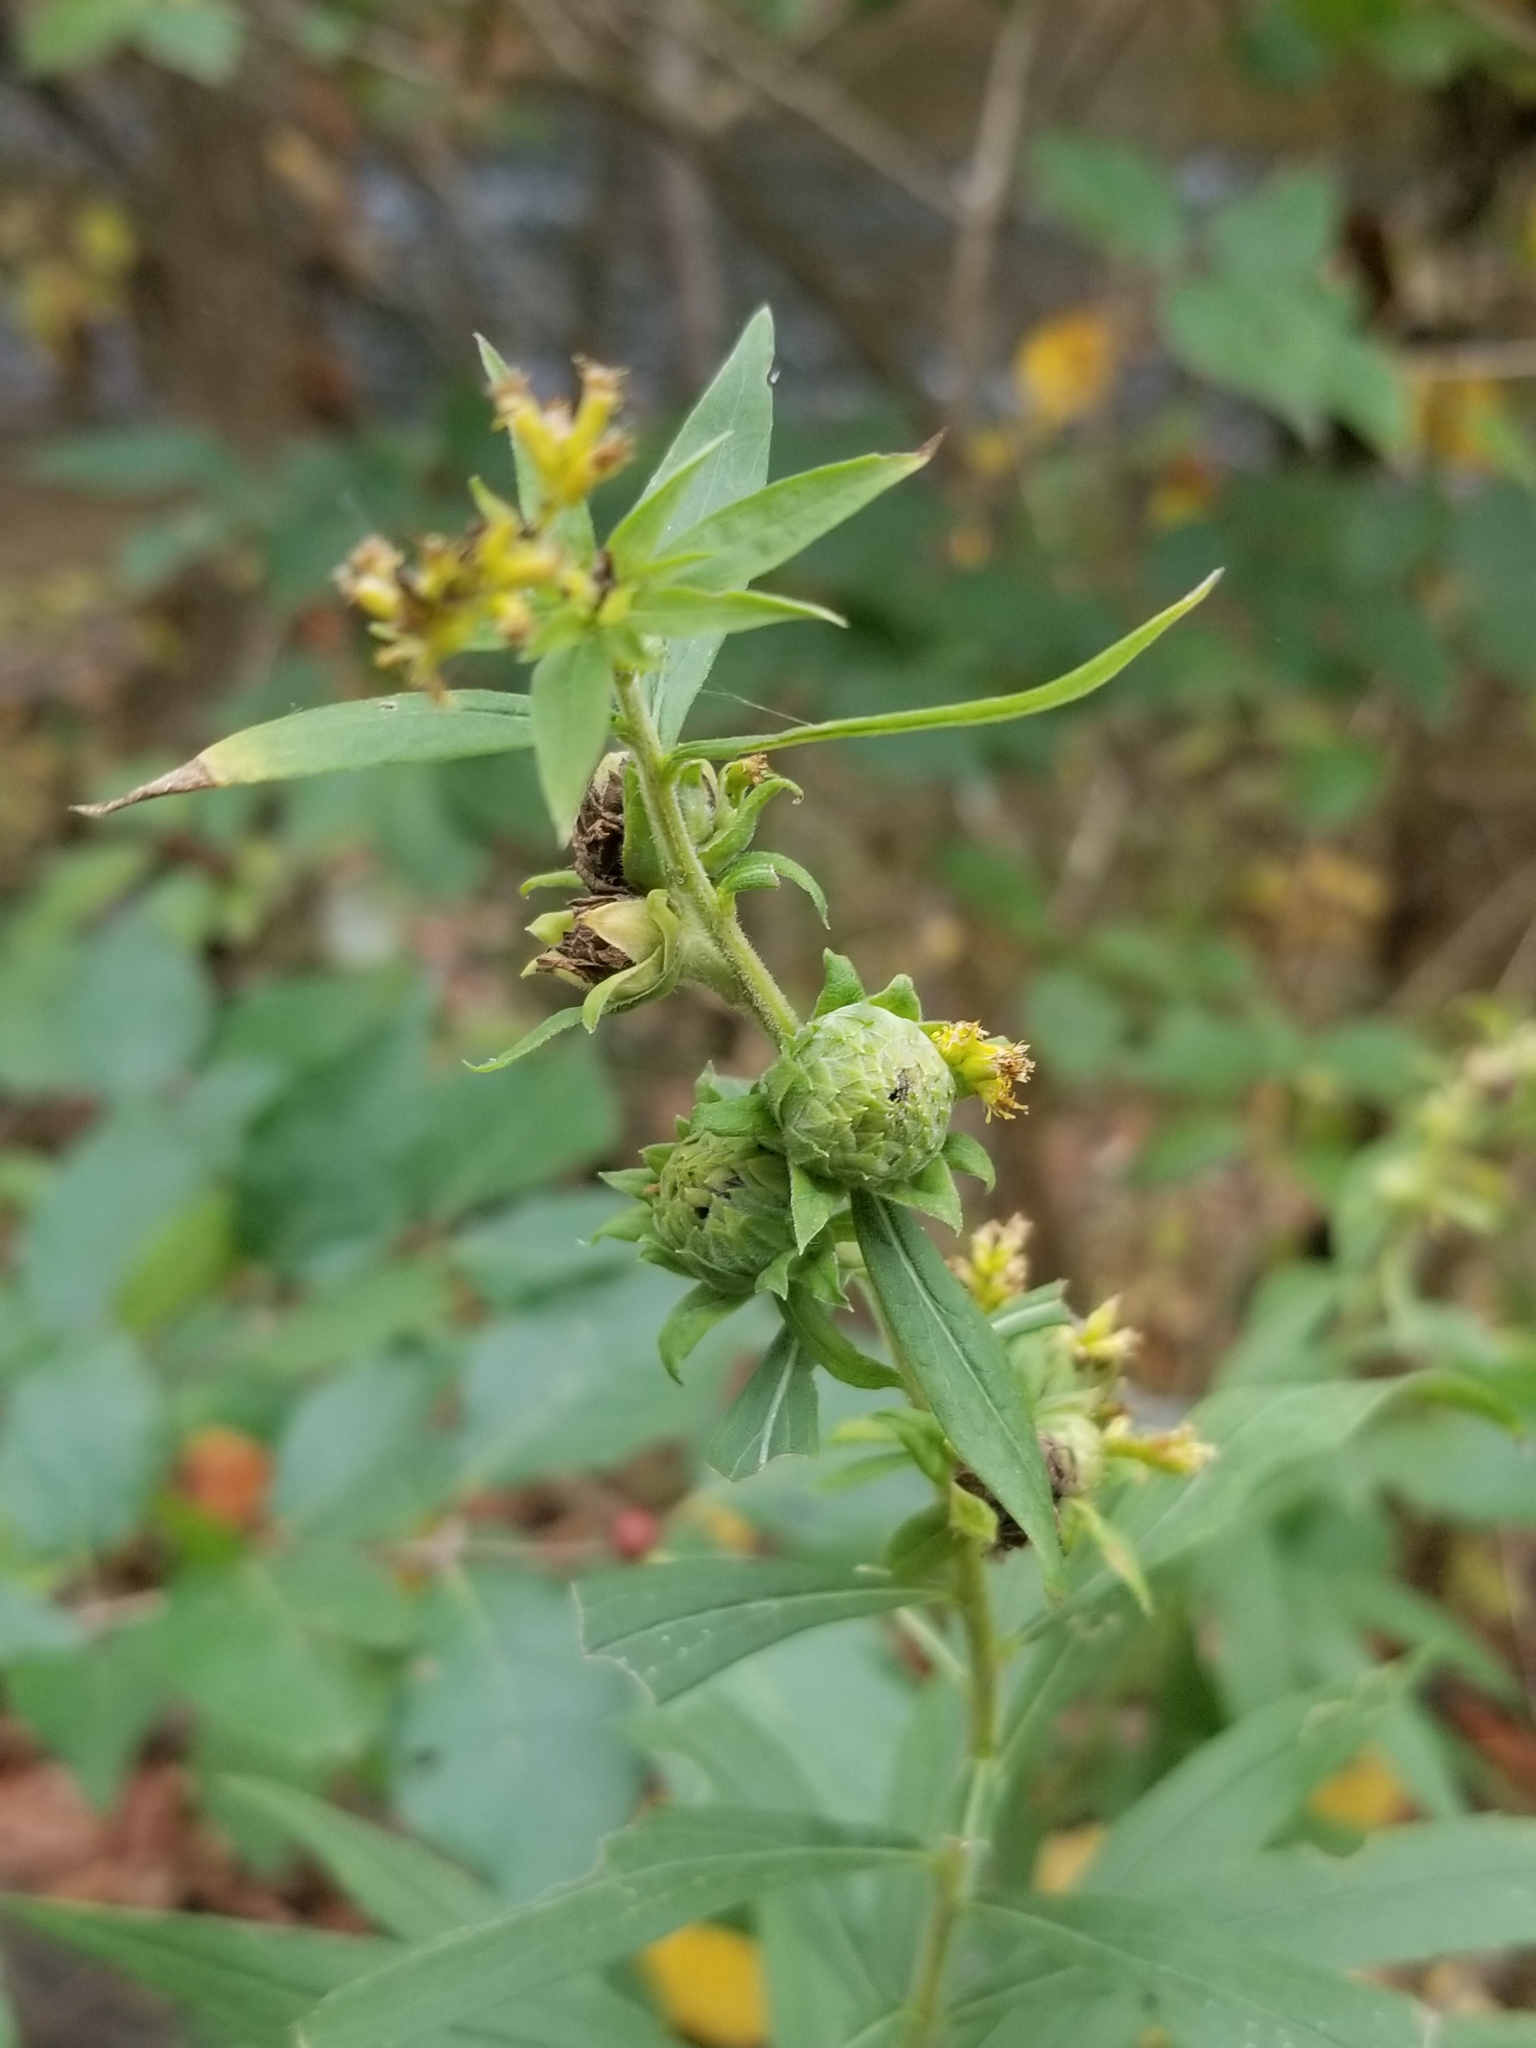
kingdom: Animalia
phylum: Arthropoda
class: Insecta
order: Diptera
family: Tephritidae
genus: Procecidochares
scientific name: Procecidochares atra
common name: Goldenrod brussels sprout gall fly
